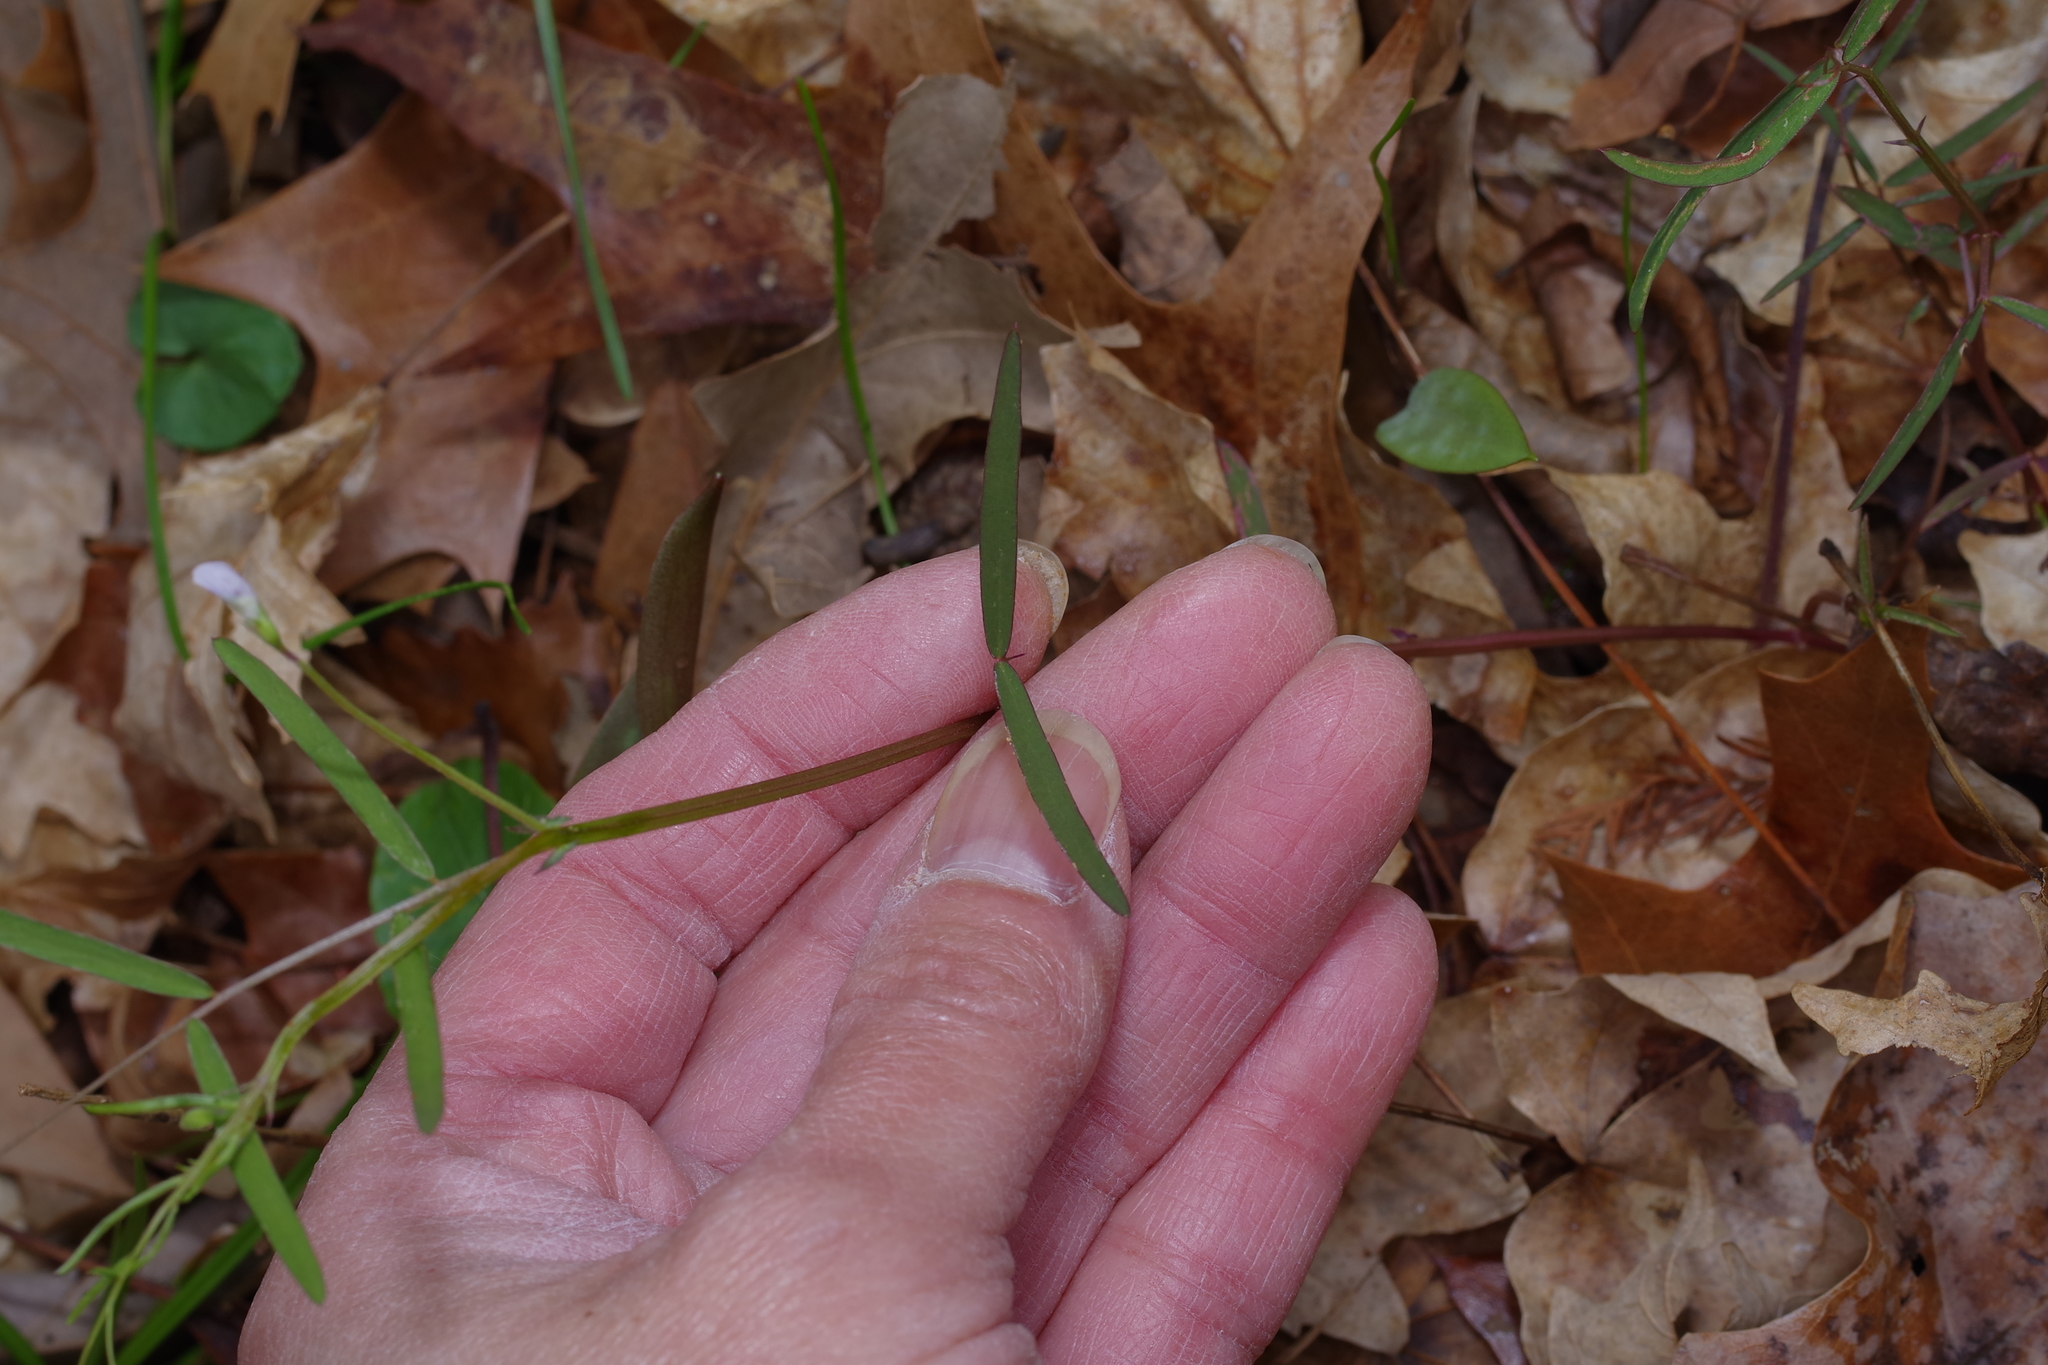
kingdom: Plantae
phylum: Tracheophyta
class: Magnoliopsida
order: Fabales
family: Fabaceae
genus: Vicia
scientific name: Vicia minutiflora
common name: Pygmy-flower vetch
